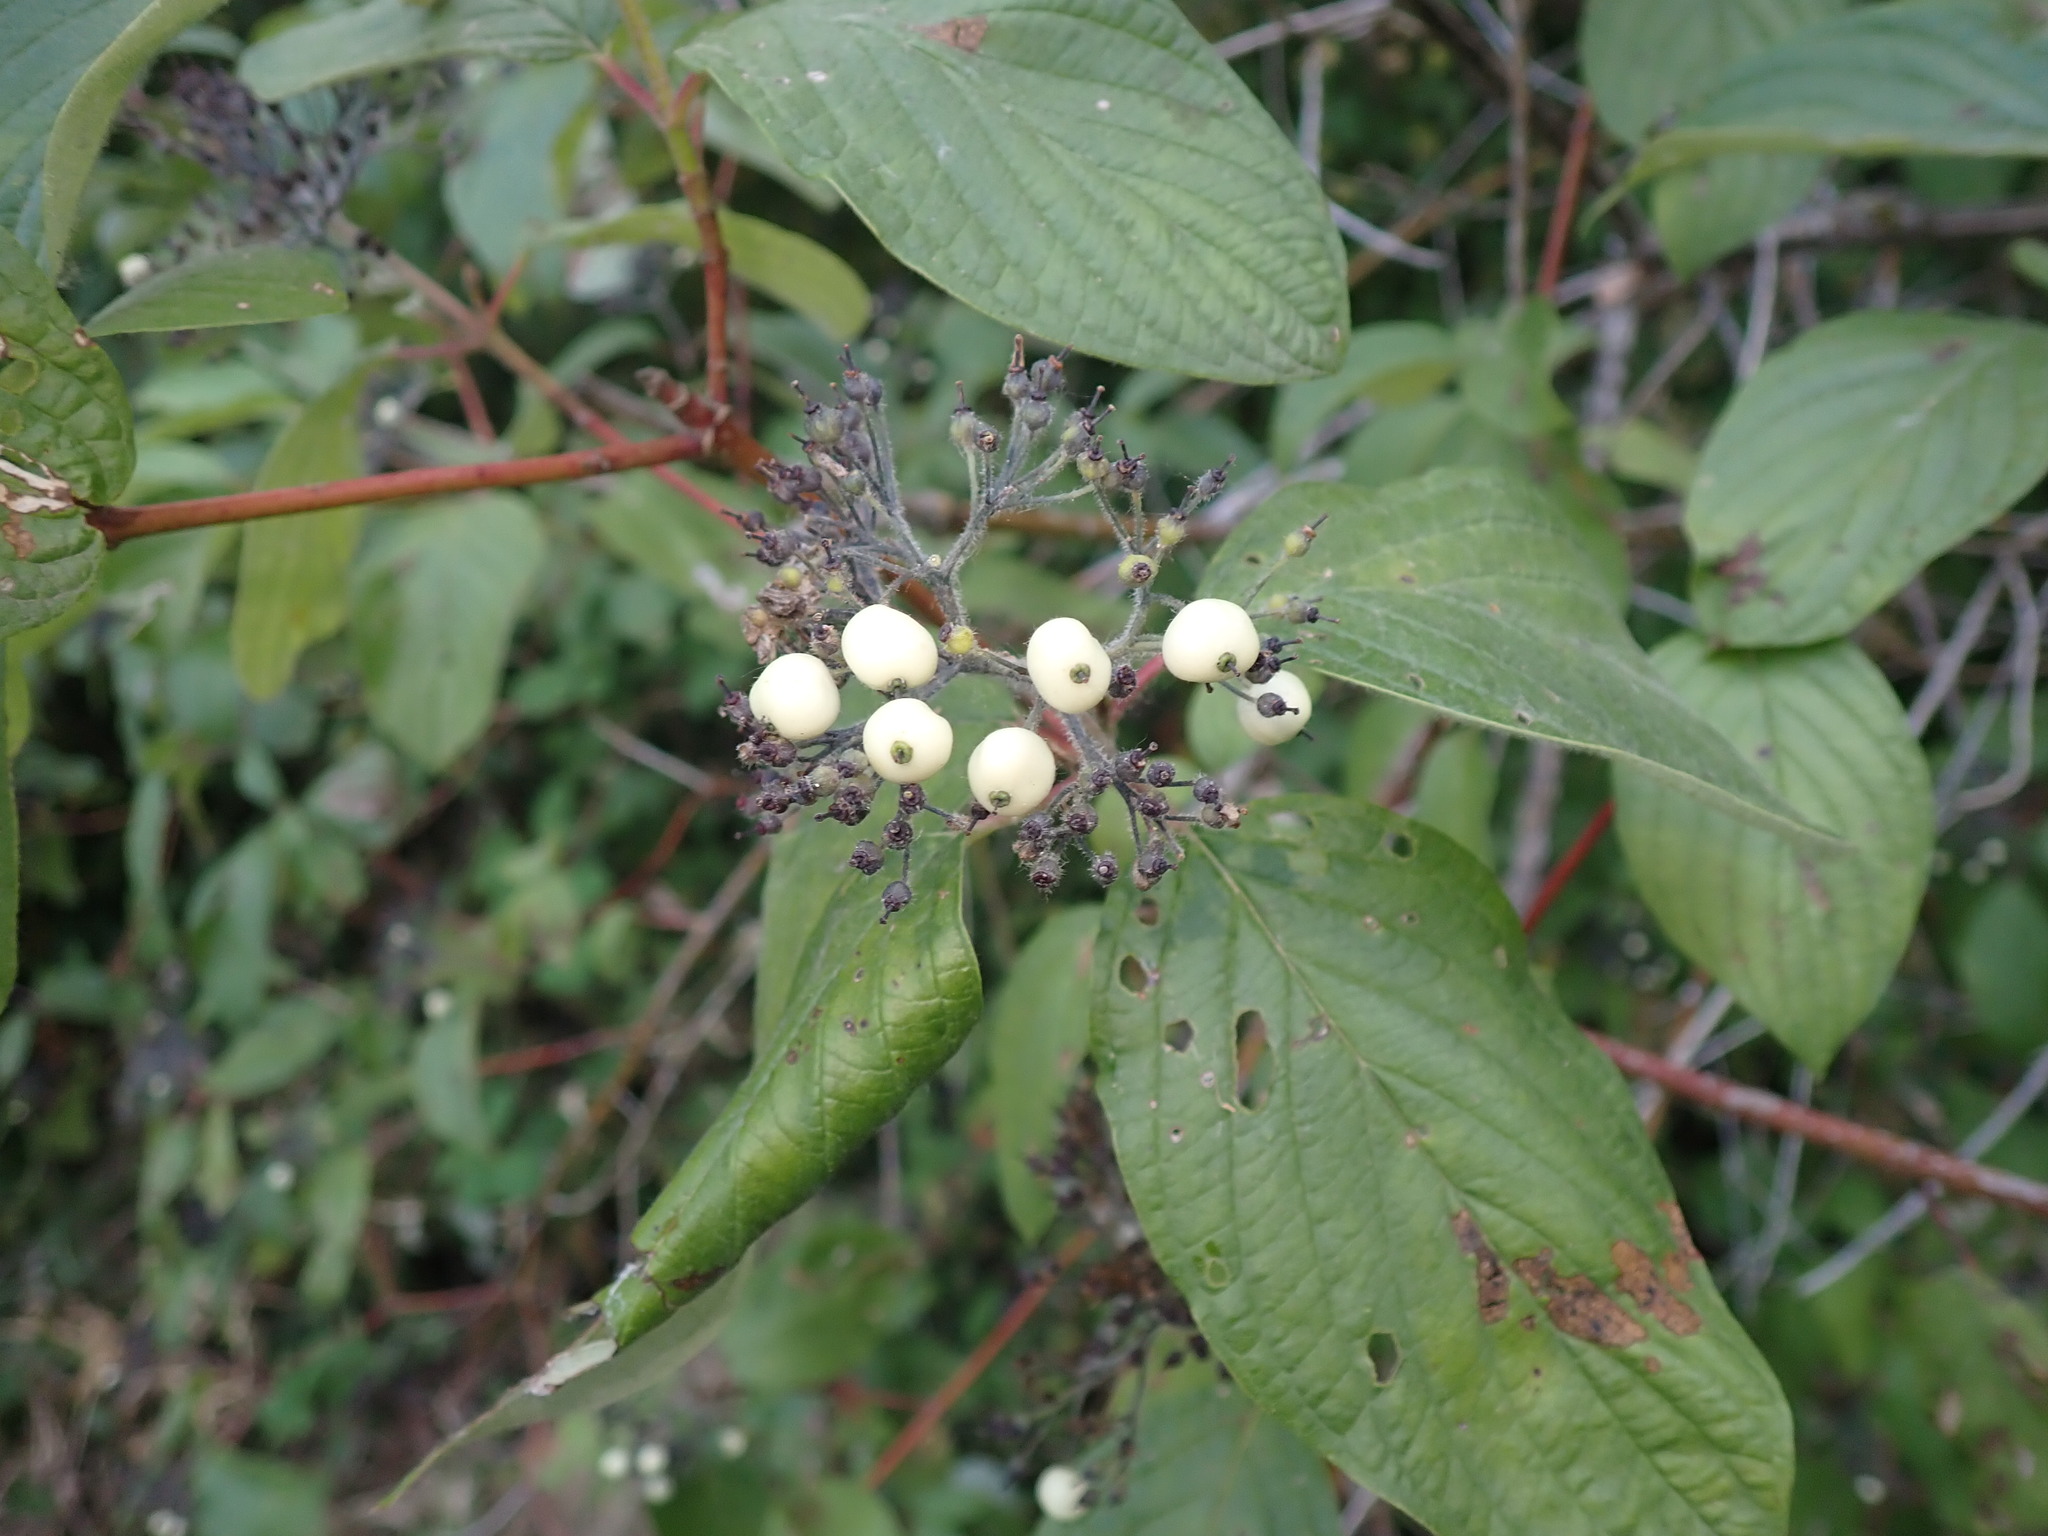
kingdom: Plantae
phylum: Tracheophyta
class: Magnoliopsida
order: Cornales
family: Cornaceae
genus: Cornus
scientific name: Cornus sericea
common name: Red-osier dogwood
